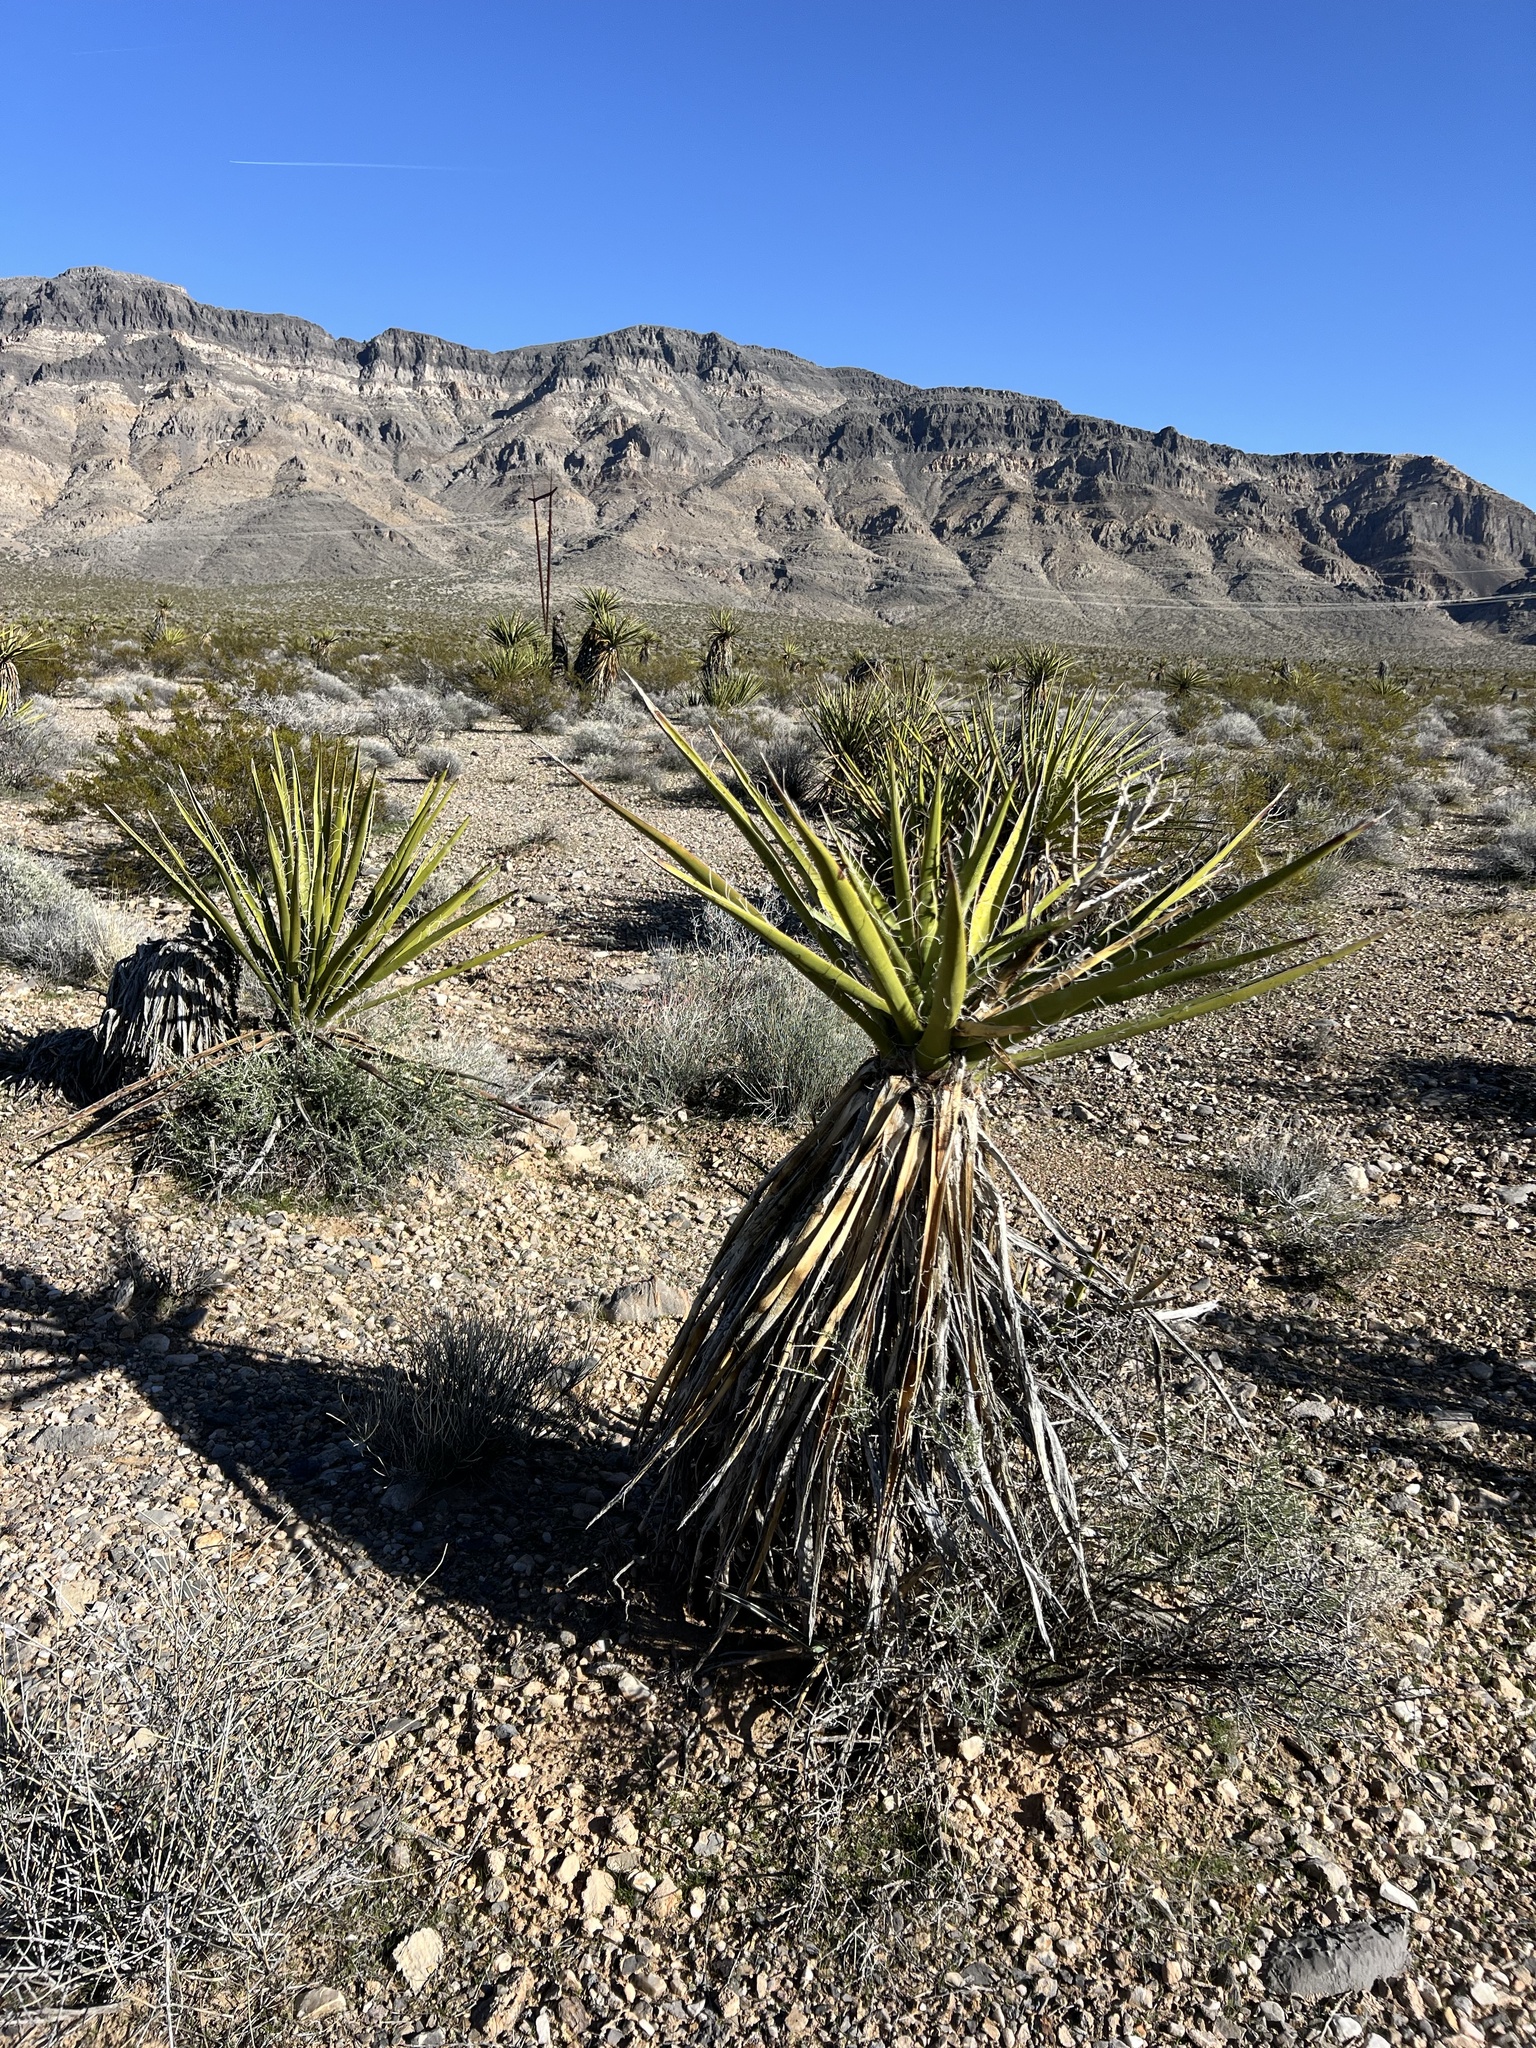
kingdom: Plantae
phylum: Tracheophyta
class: Liliopsida
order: Asparagales
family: Asparagaceae
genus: Yucca
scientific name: Yucca schidigera
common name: Mojave yucca
